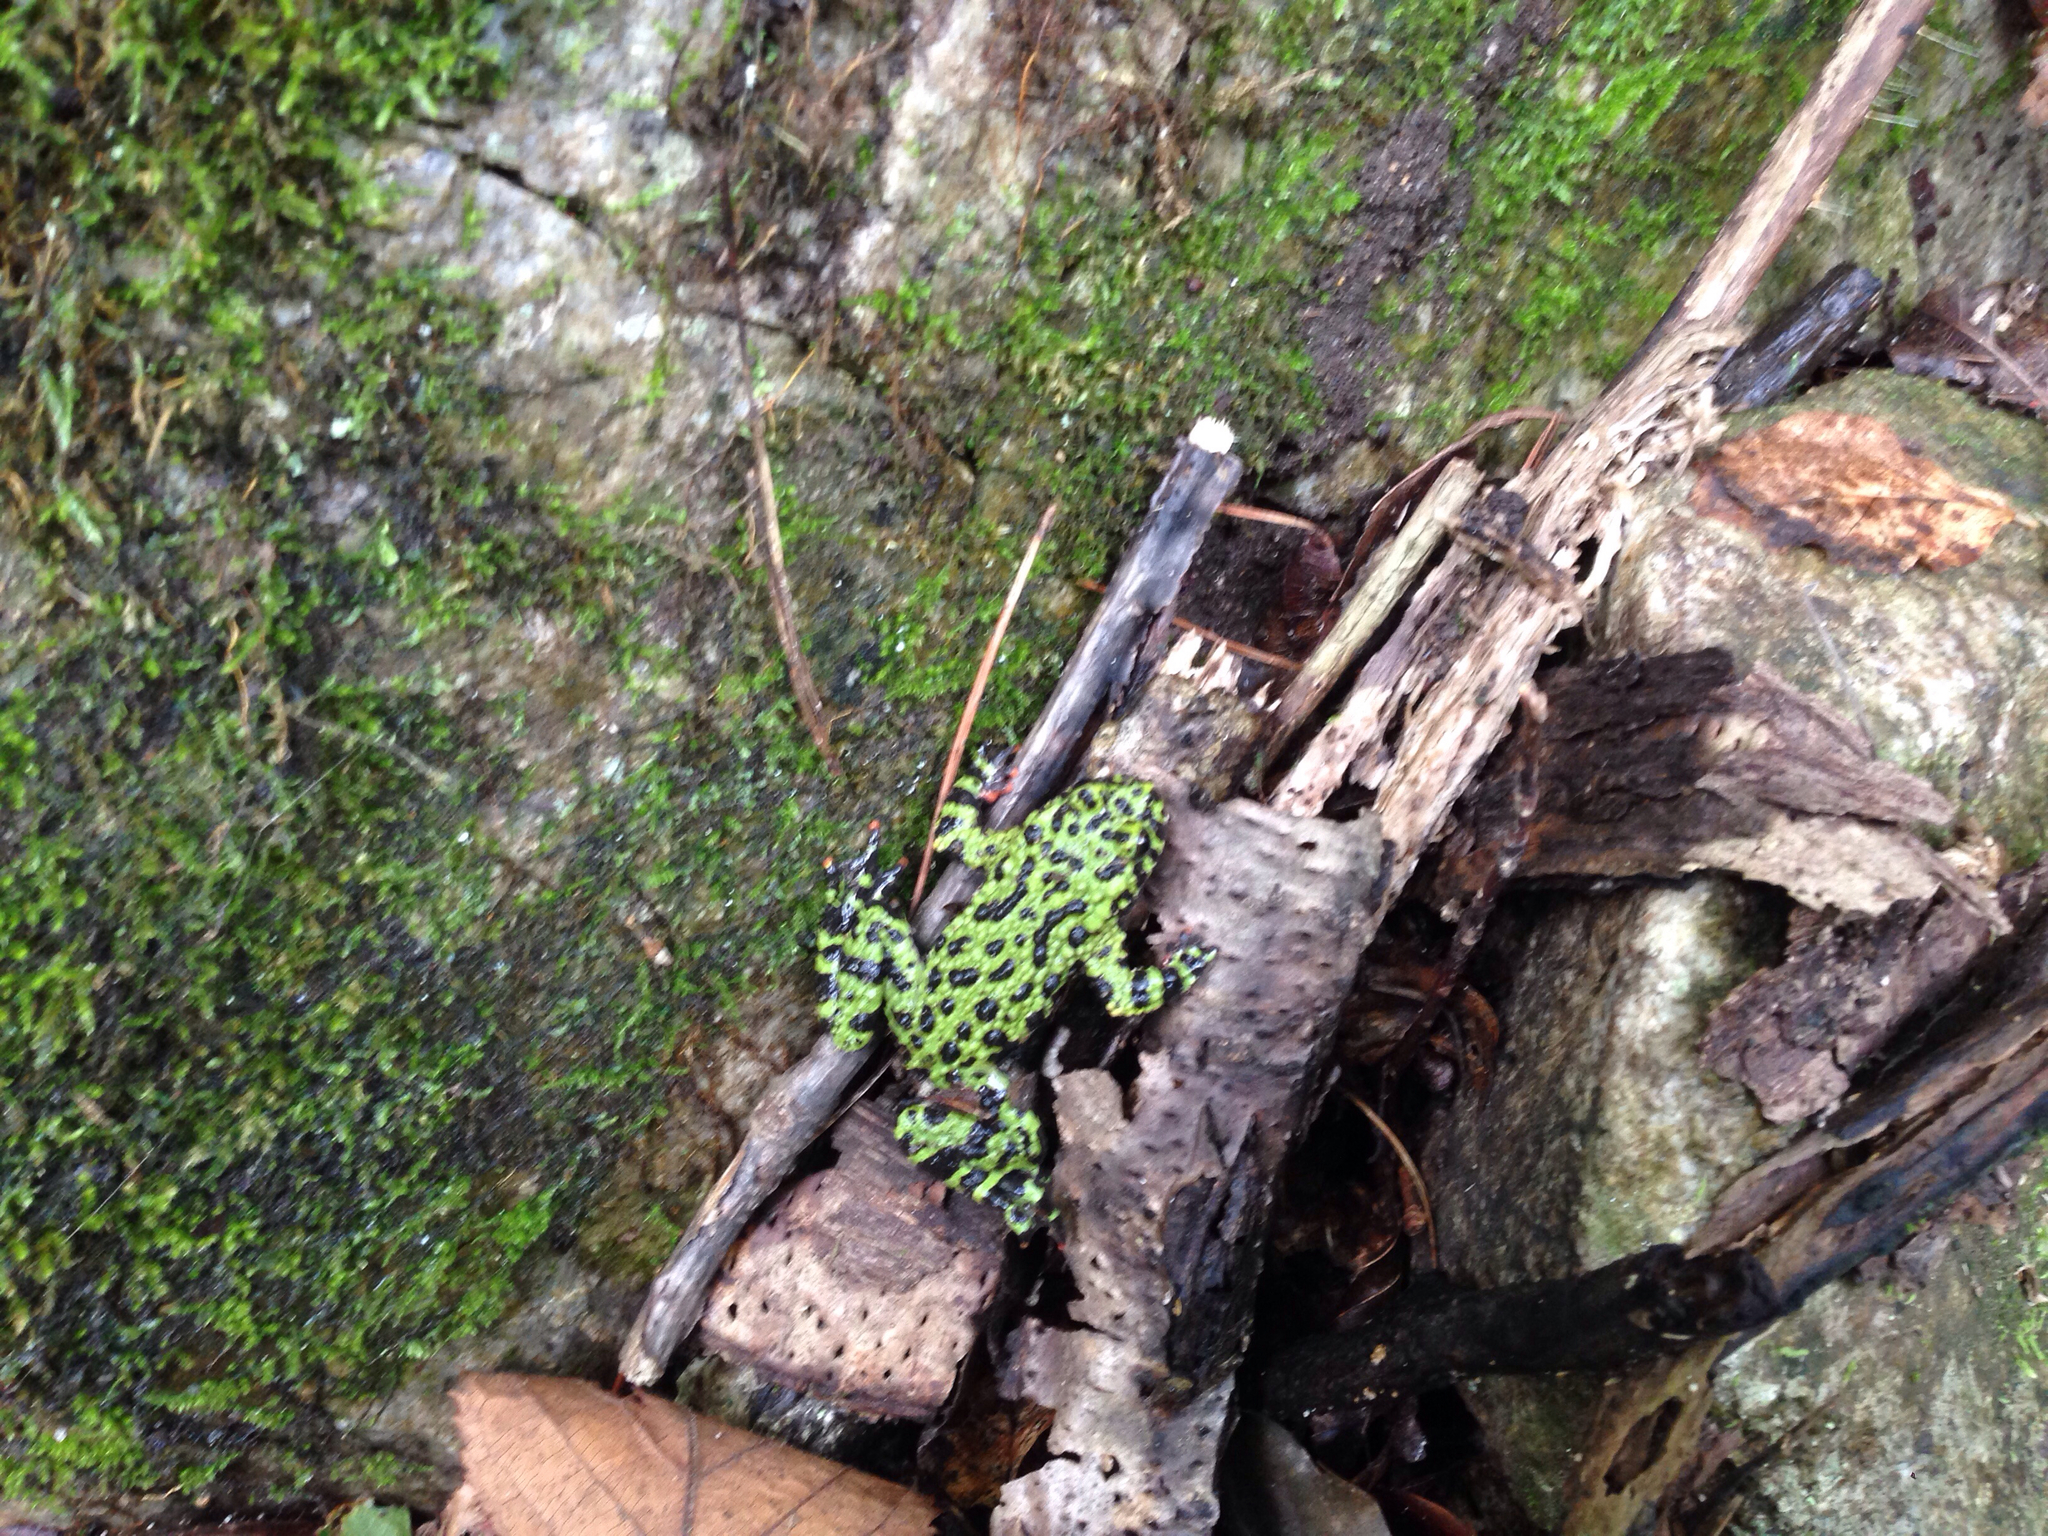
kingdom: Animalia
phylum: Chordata
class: Amphibia
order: Anura
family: Bombinatoridae
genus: Bombina
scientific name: Bombina orientalis
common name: Oriental firebelly toad
